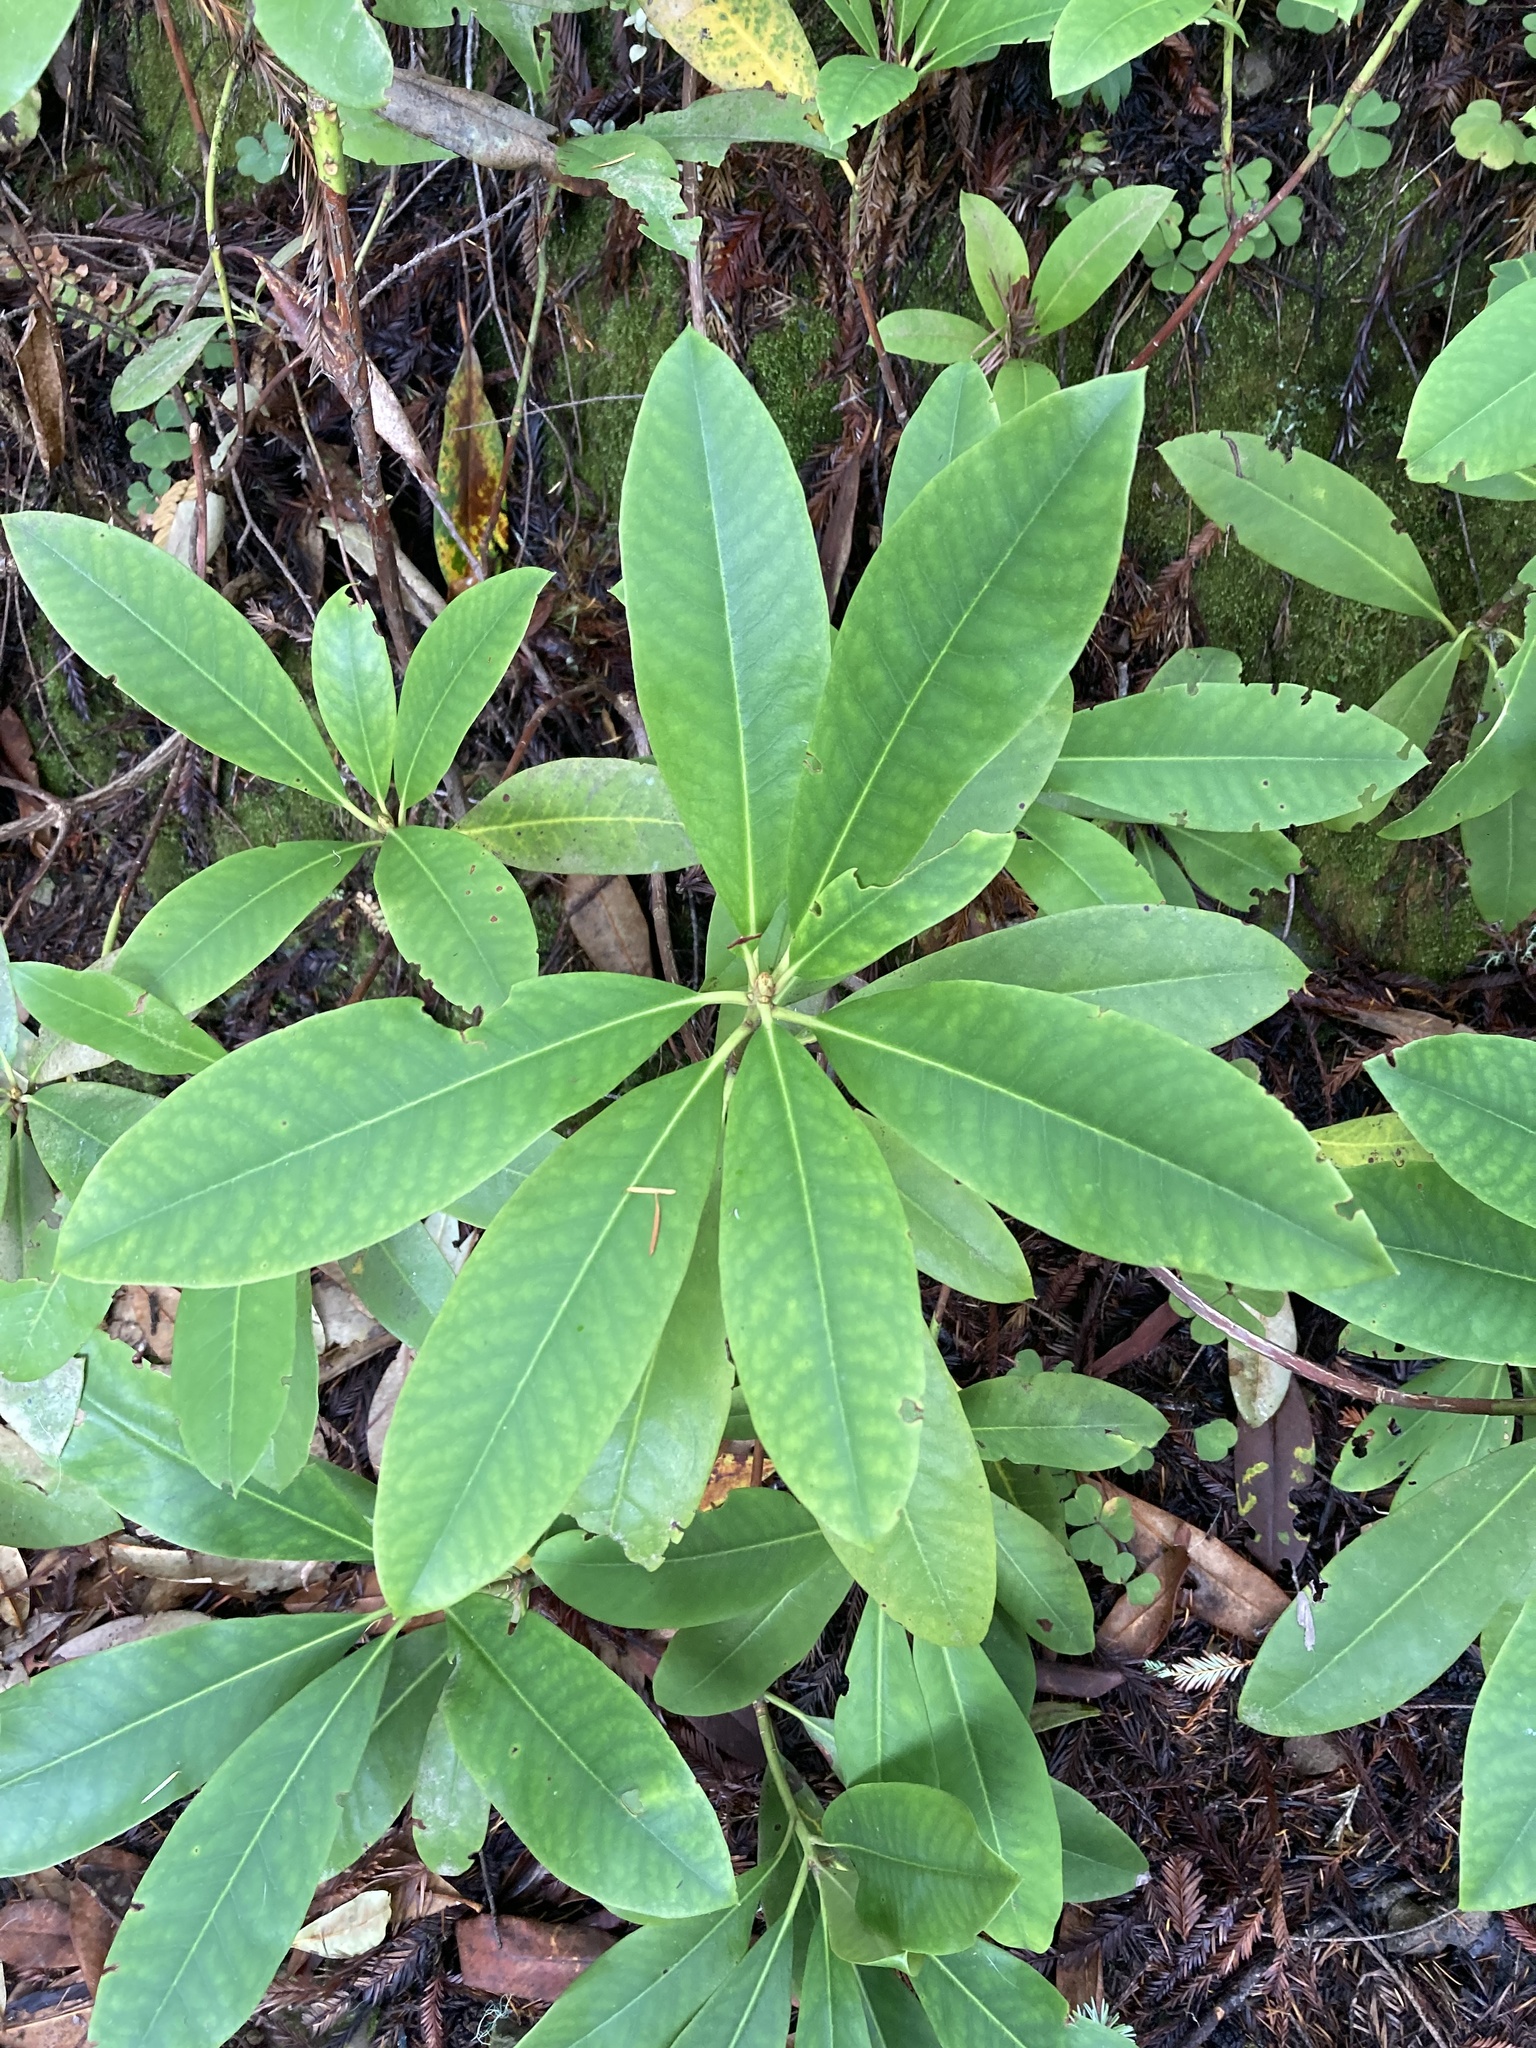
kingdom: Plantae
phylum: Tracheophyta
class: Magnoliopsida
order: Ericales
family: Ericaceae
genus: Rhododendron
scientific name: Rhododendron macrophyllum
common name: California rose bay
